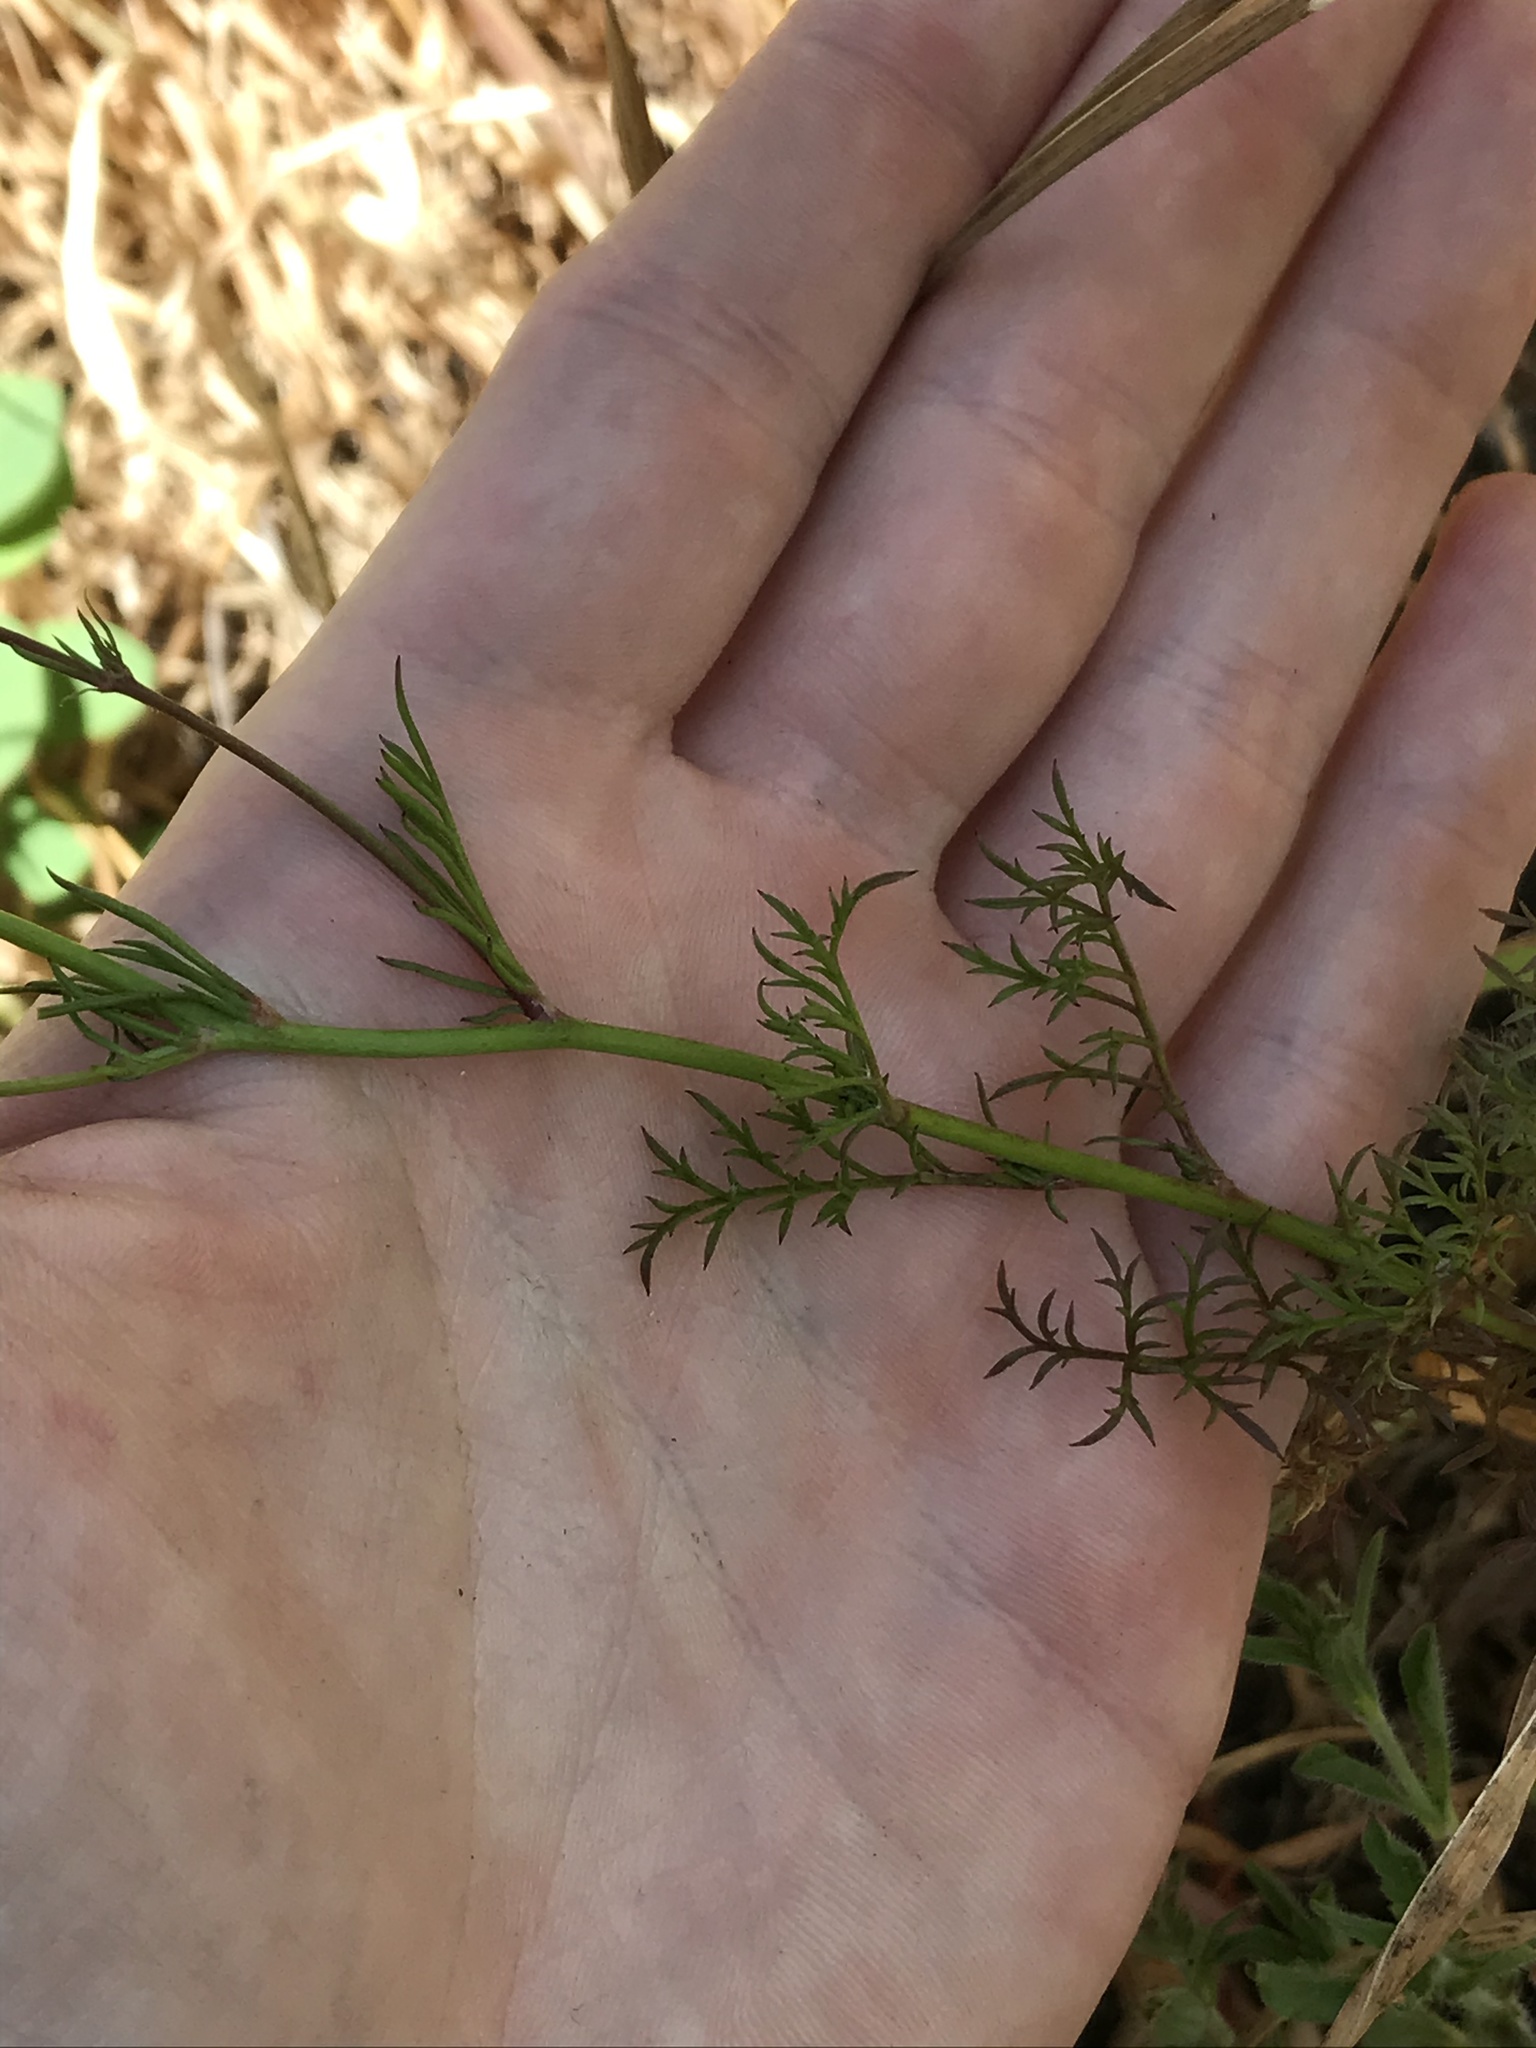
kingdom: Plantae
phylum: Tracheophyta
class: Magnoliopsida
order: Ericales
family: Polemoniaceae
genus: Gilia
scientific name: Gilia achilleifolia
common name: California gily-flower
